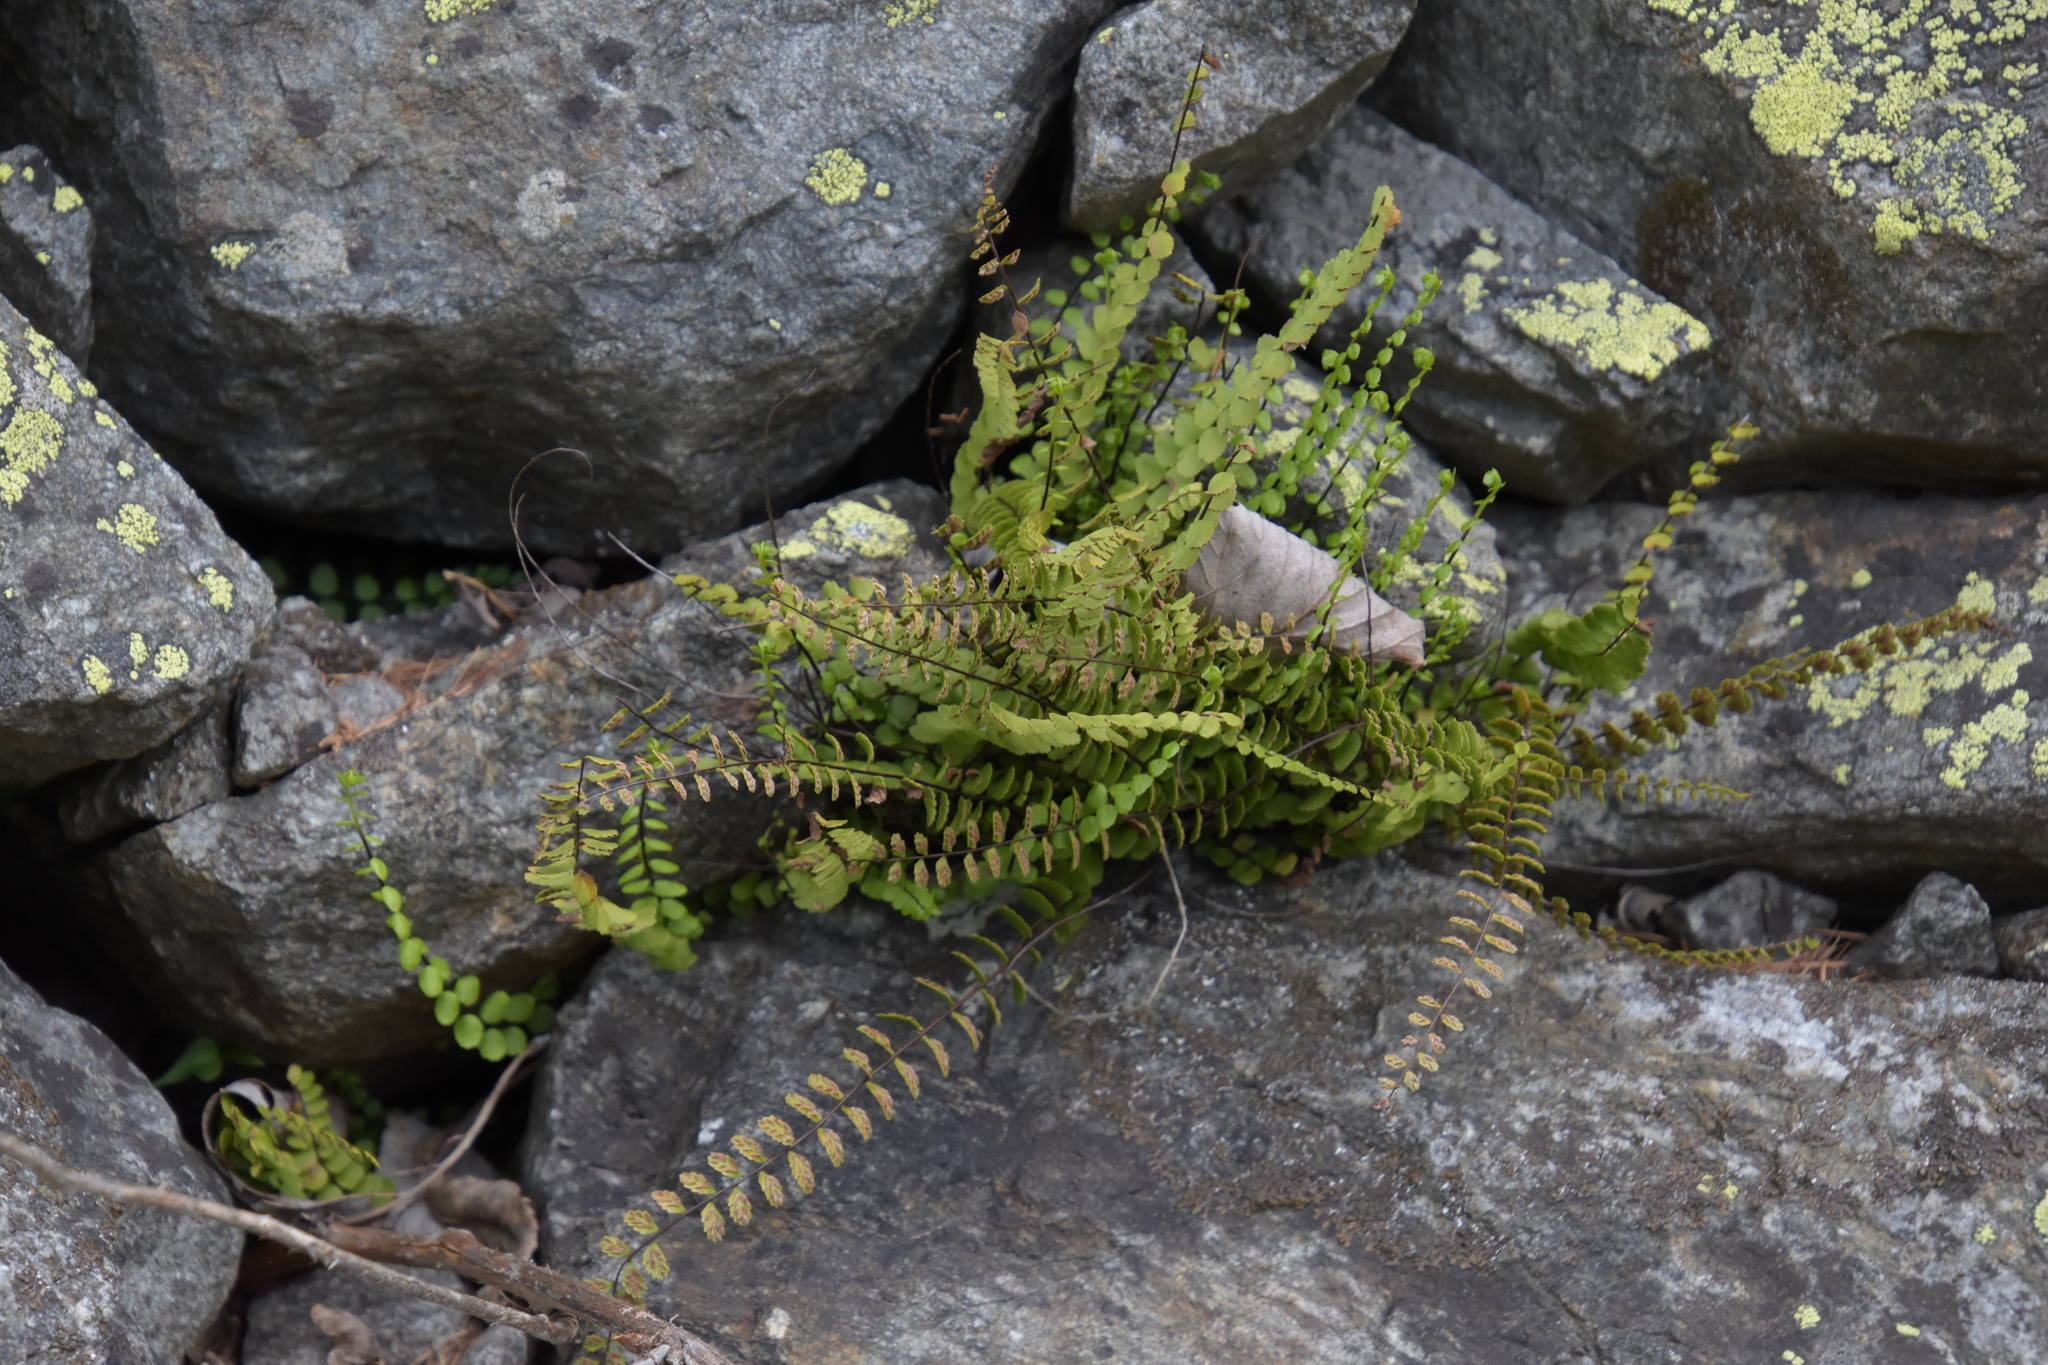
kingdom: Plantae
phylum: Tracheophyta
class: Polypodiopsida
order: Polypodiales
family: Aspleniaceae
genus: Asplenium
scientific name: Asplenium trichomanes
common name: Maidenhair spleenwort
